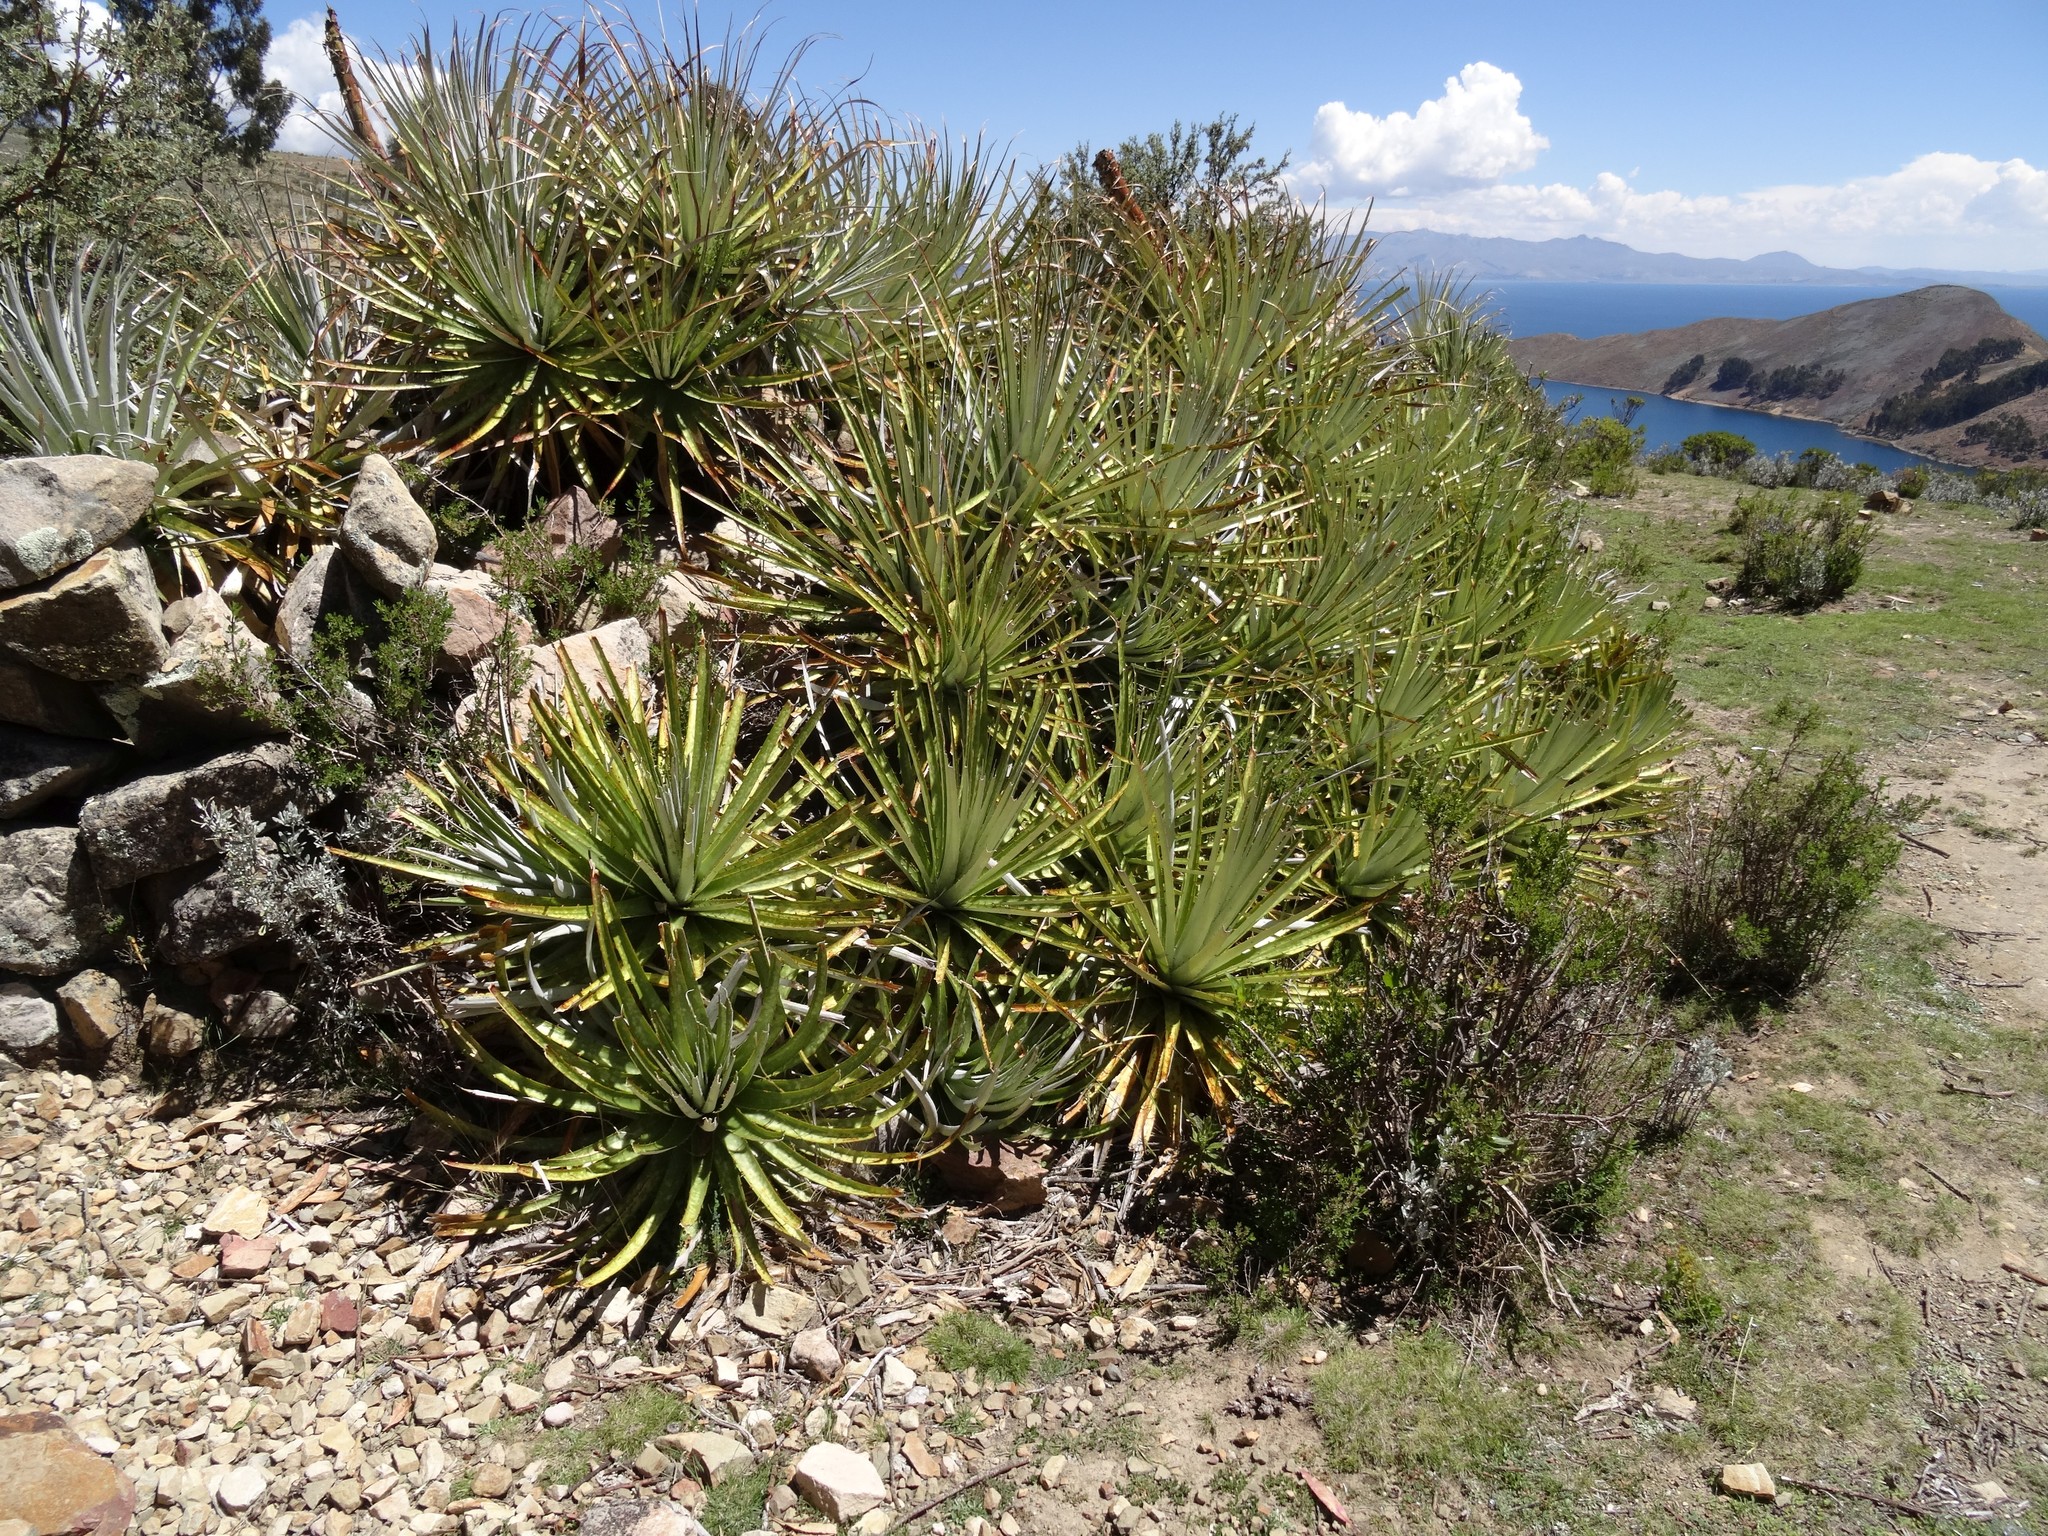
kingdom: Plantae
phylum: Tracheophyta
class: Liliopsida
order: Poales
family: Bromeliaceae
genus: Puya
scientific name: Puya mollis
